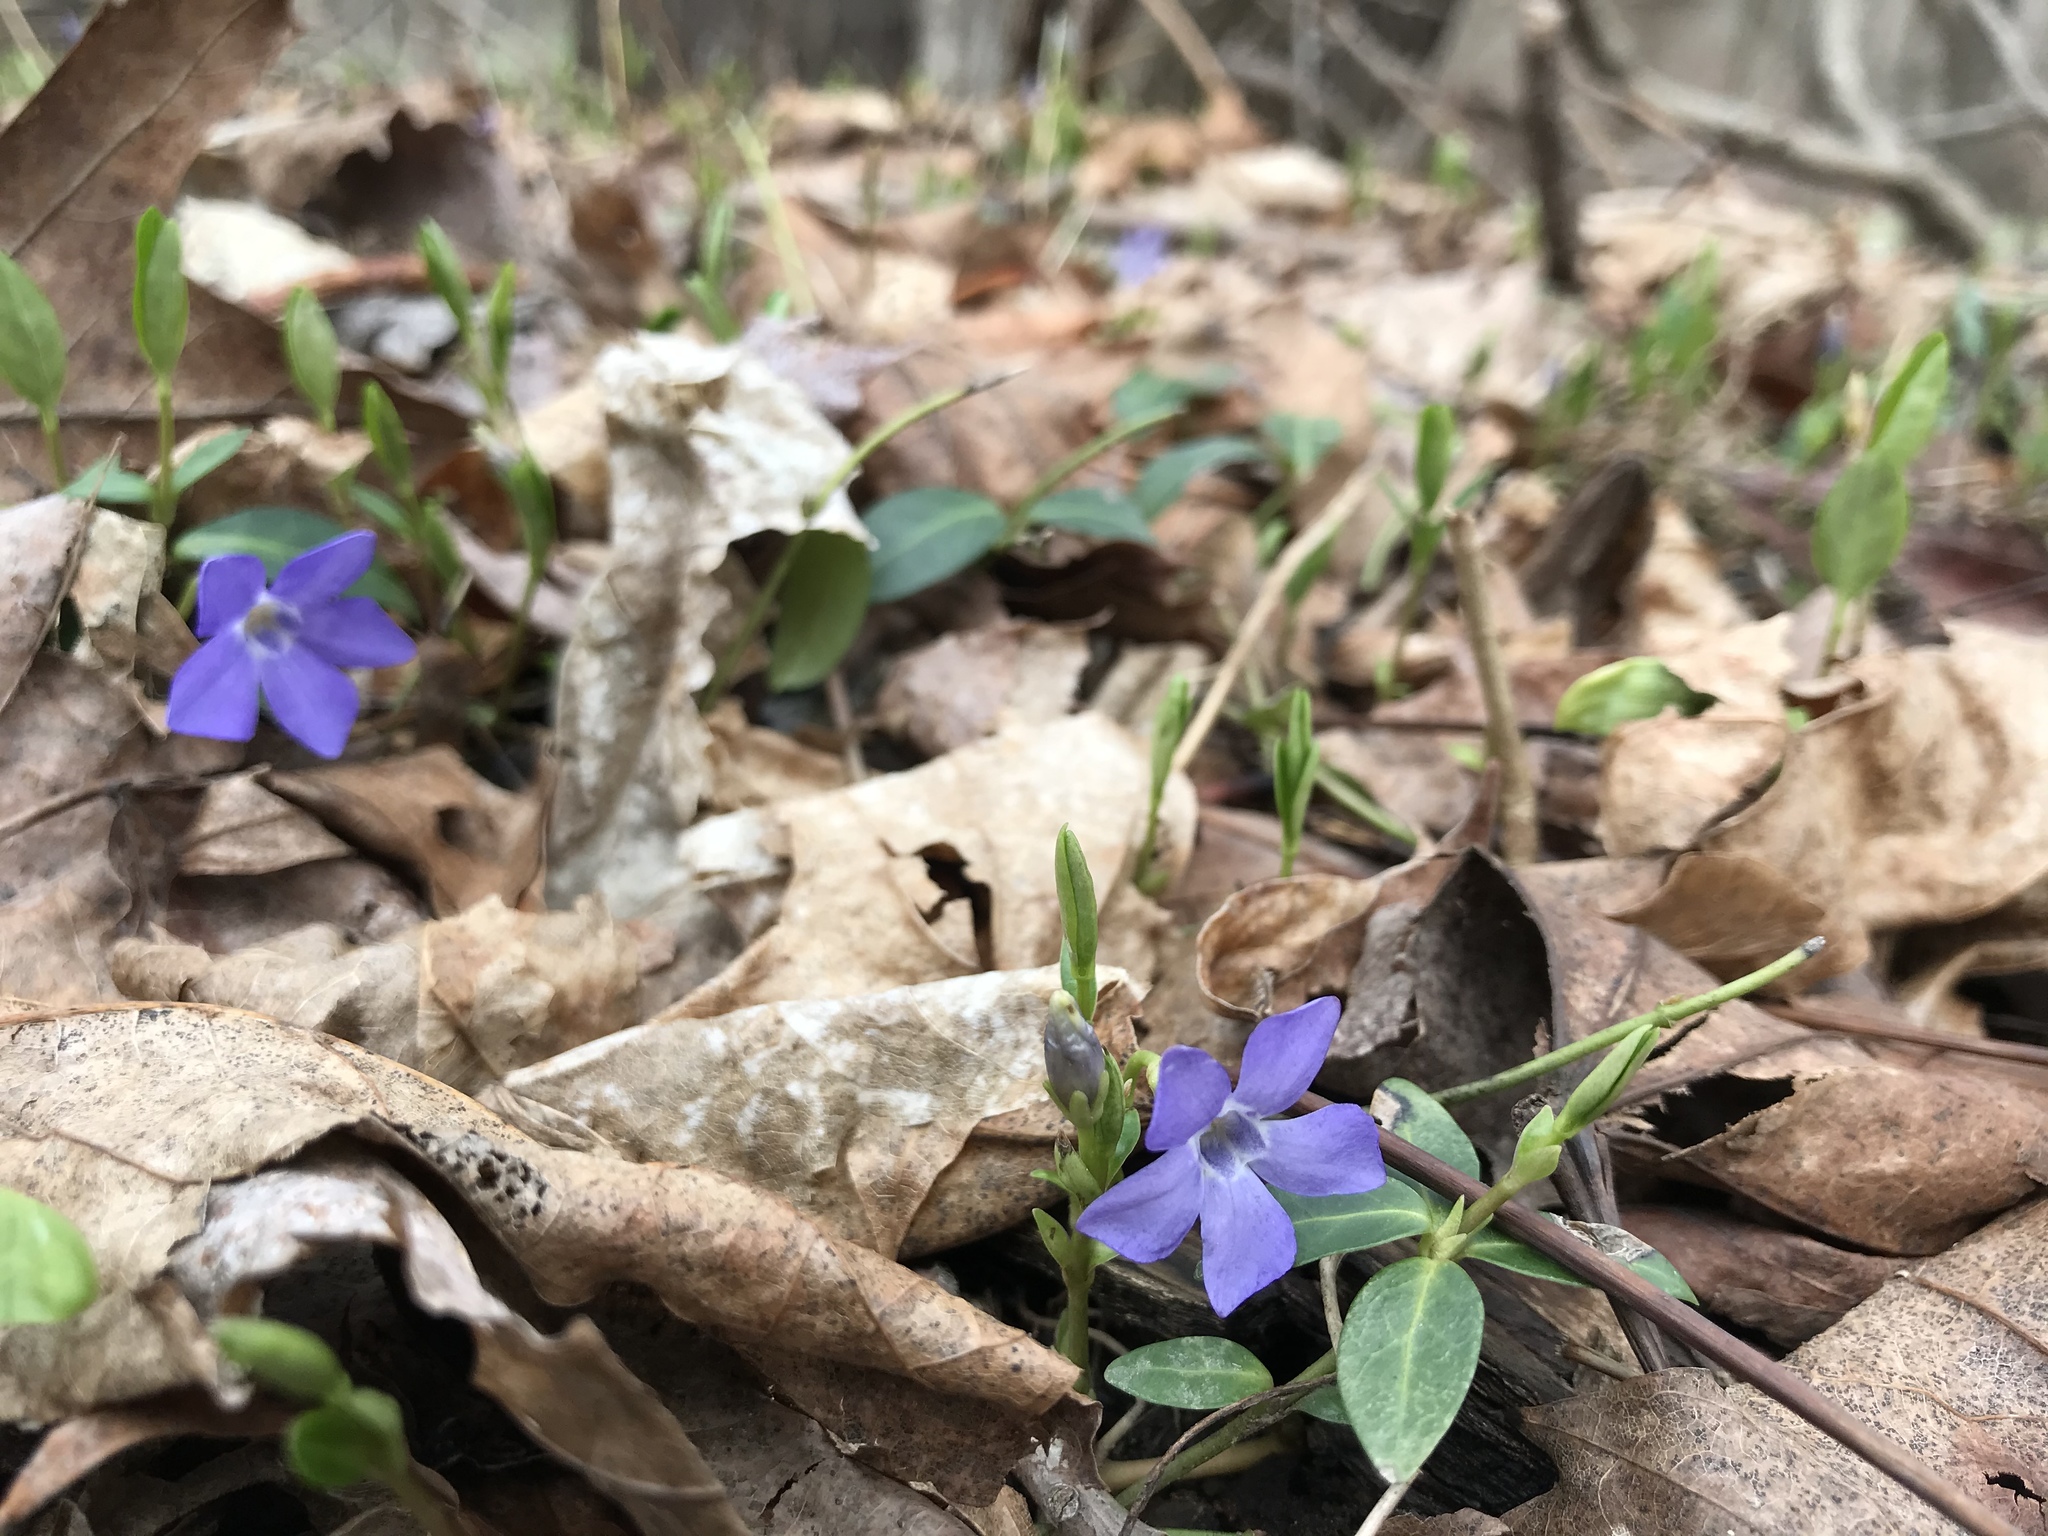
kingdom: Plantae
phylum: Tracheophyta
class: Magnoliopsida
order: Gentianales
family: Apocynaceae
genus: Vinca
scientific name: Vinca minor
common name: Lesser periwinkle
